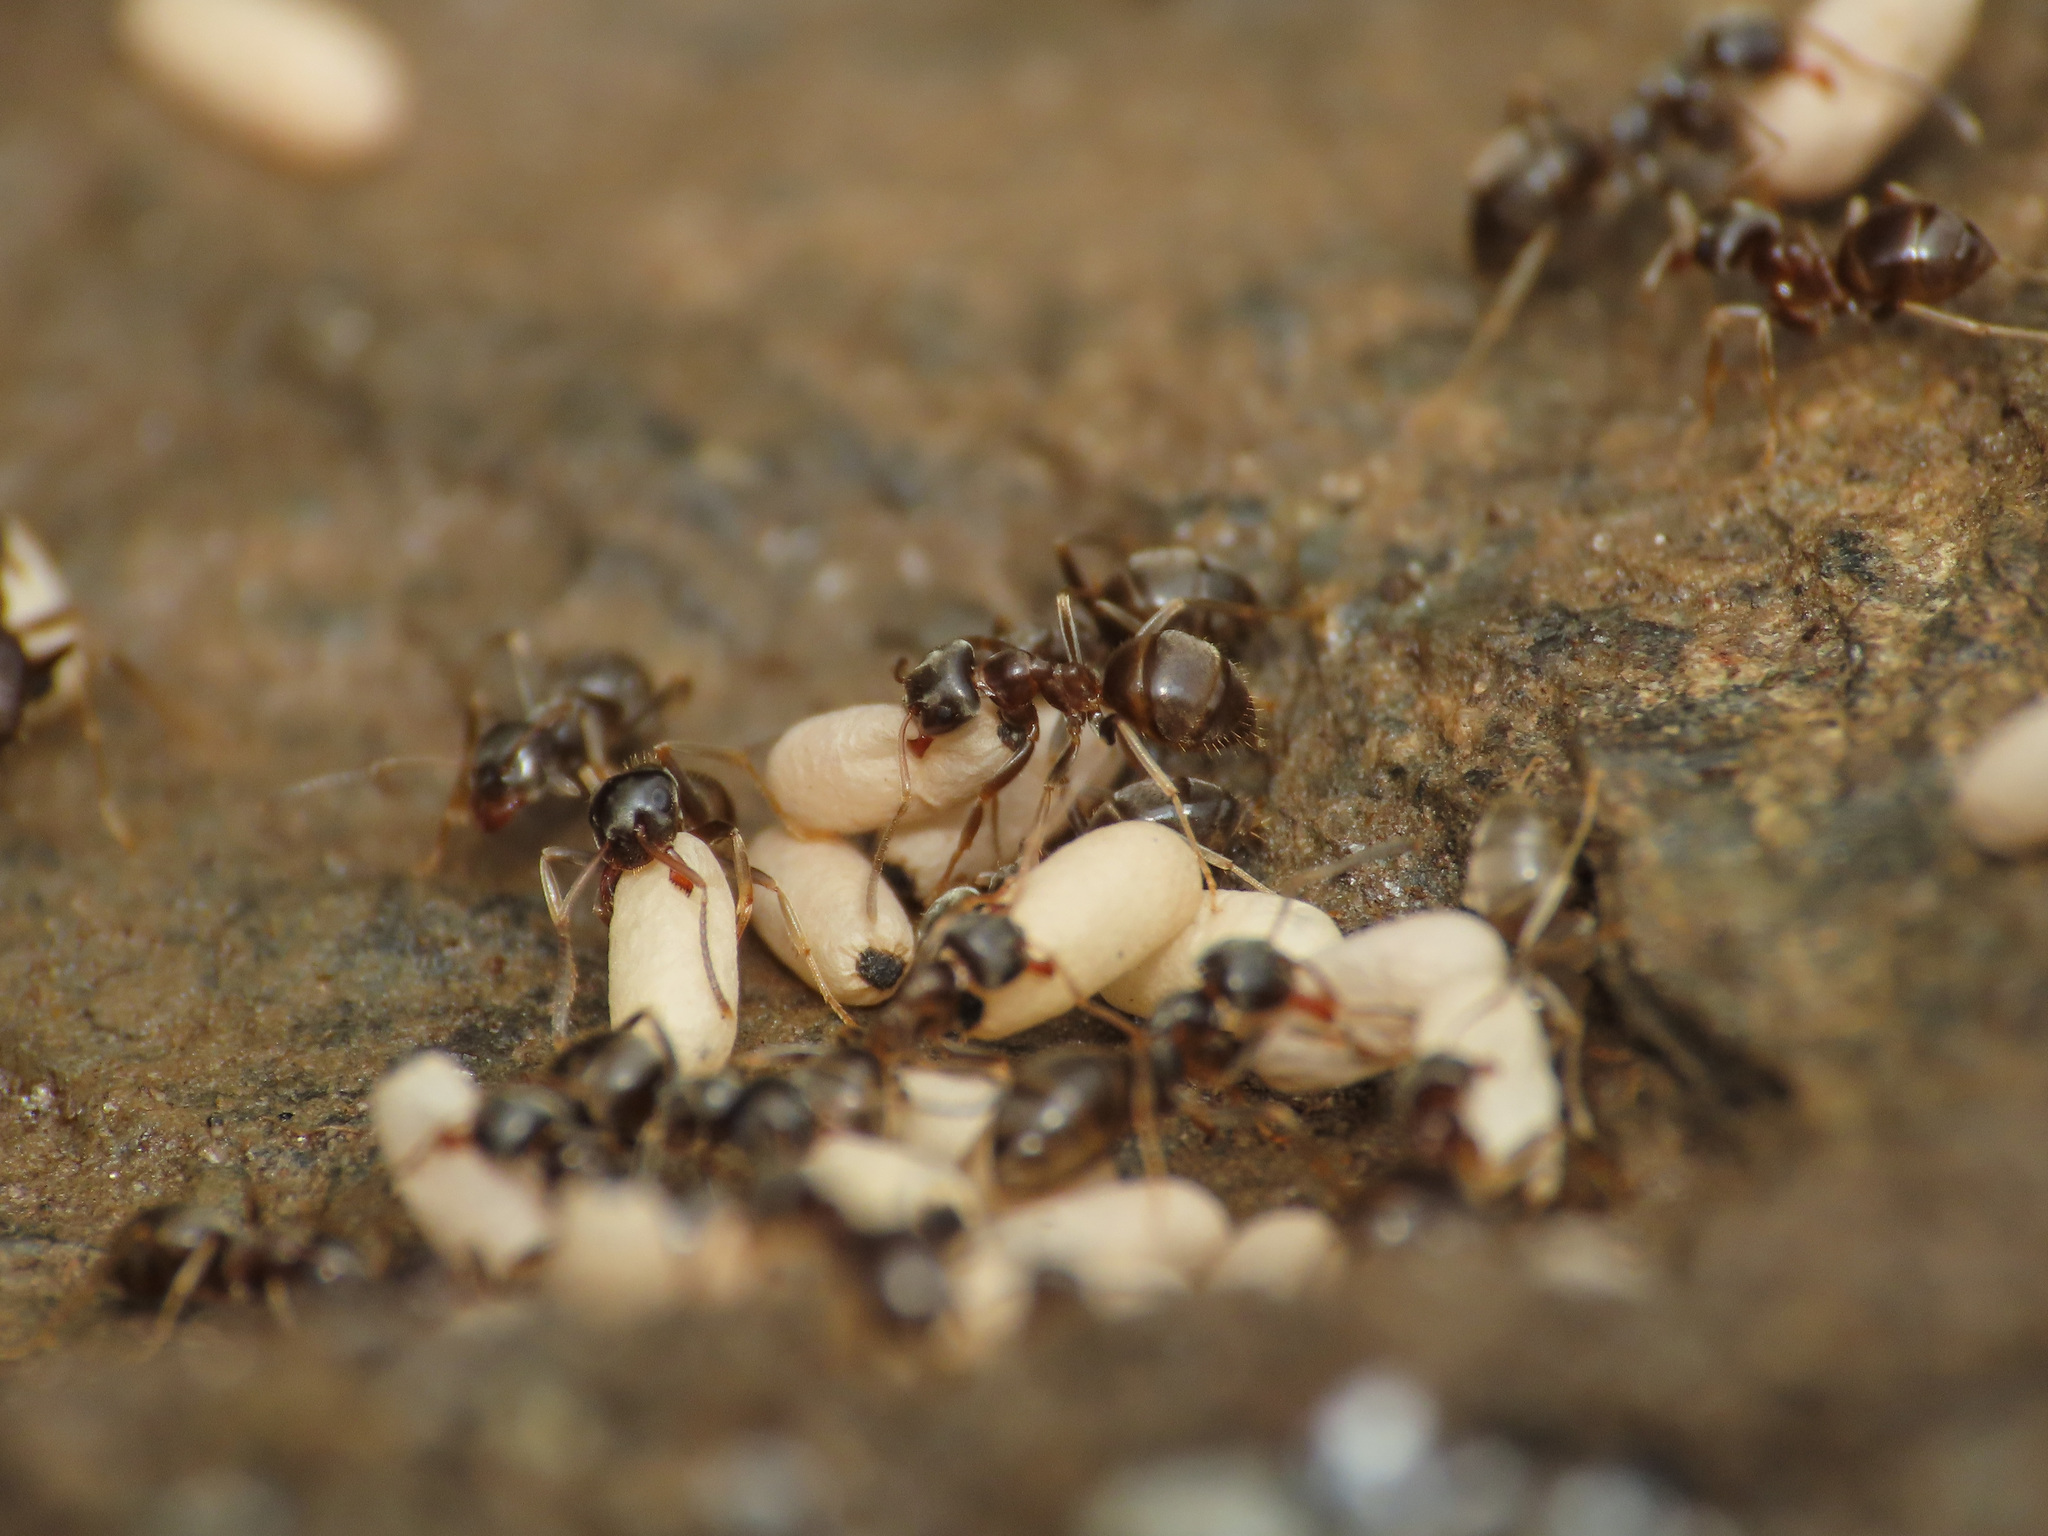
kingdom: Animalia
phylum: Arthropoda
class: Insecta
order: Hymenoptera
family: Formicidae
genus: Lasius
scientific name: Lasius
